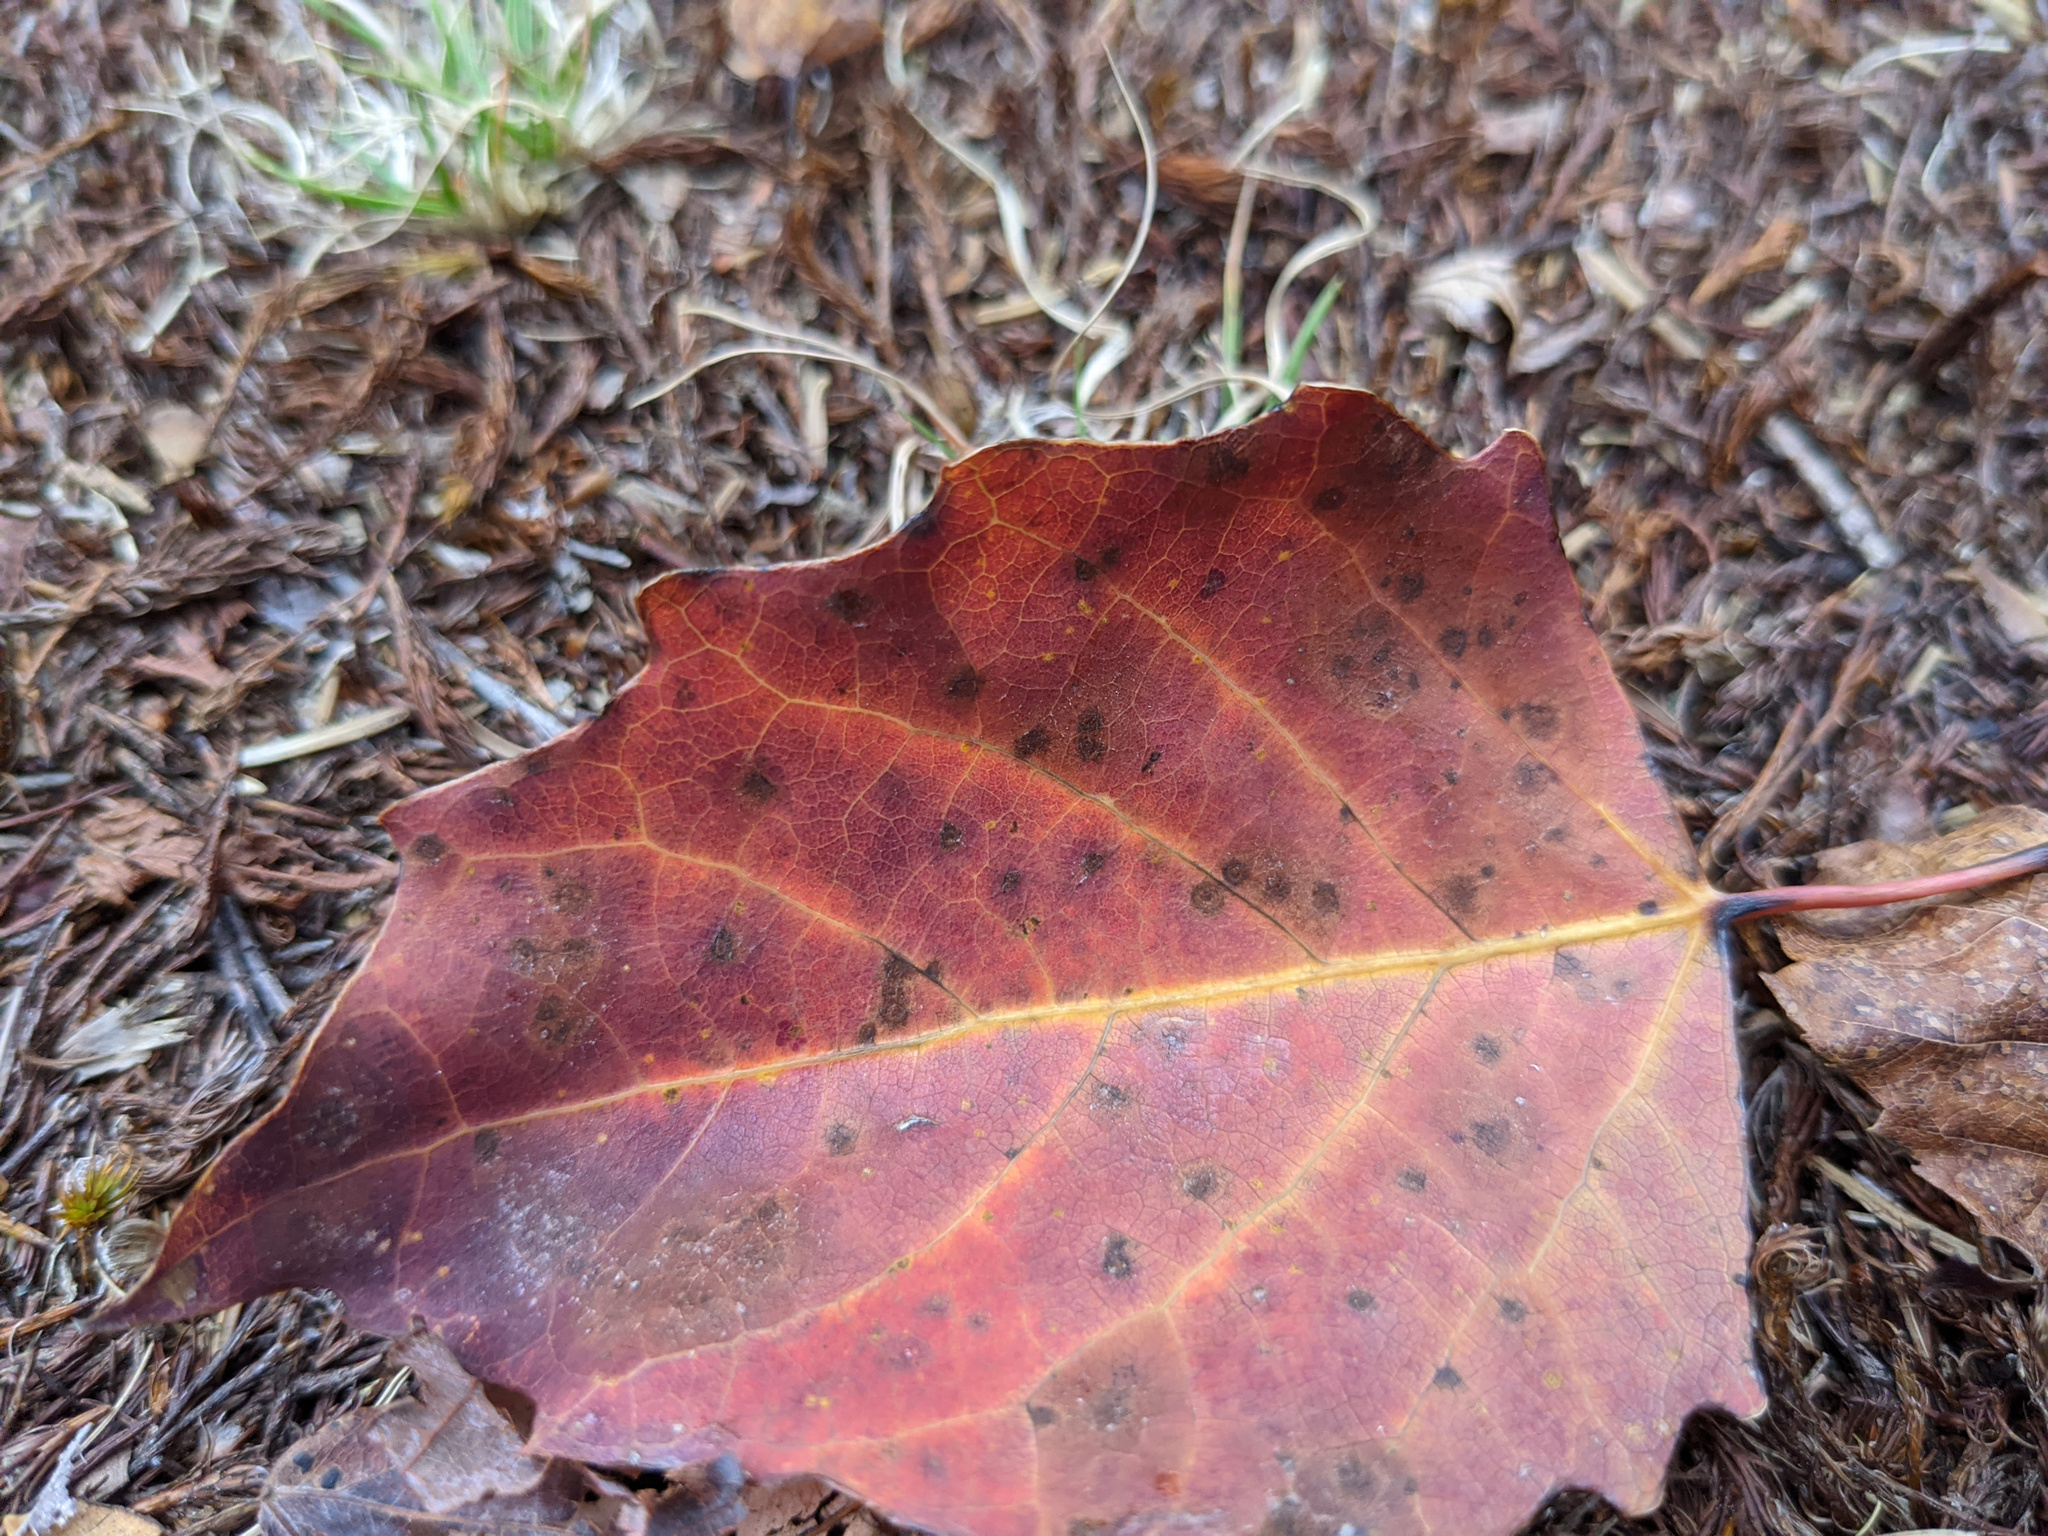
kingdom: Plantae
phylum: Tracheophyta
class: Magnoliopsida
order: Malpighiales
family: Salicaceae
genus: Populus
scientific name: Populus grandidentata
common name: Bigtooth aspen
